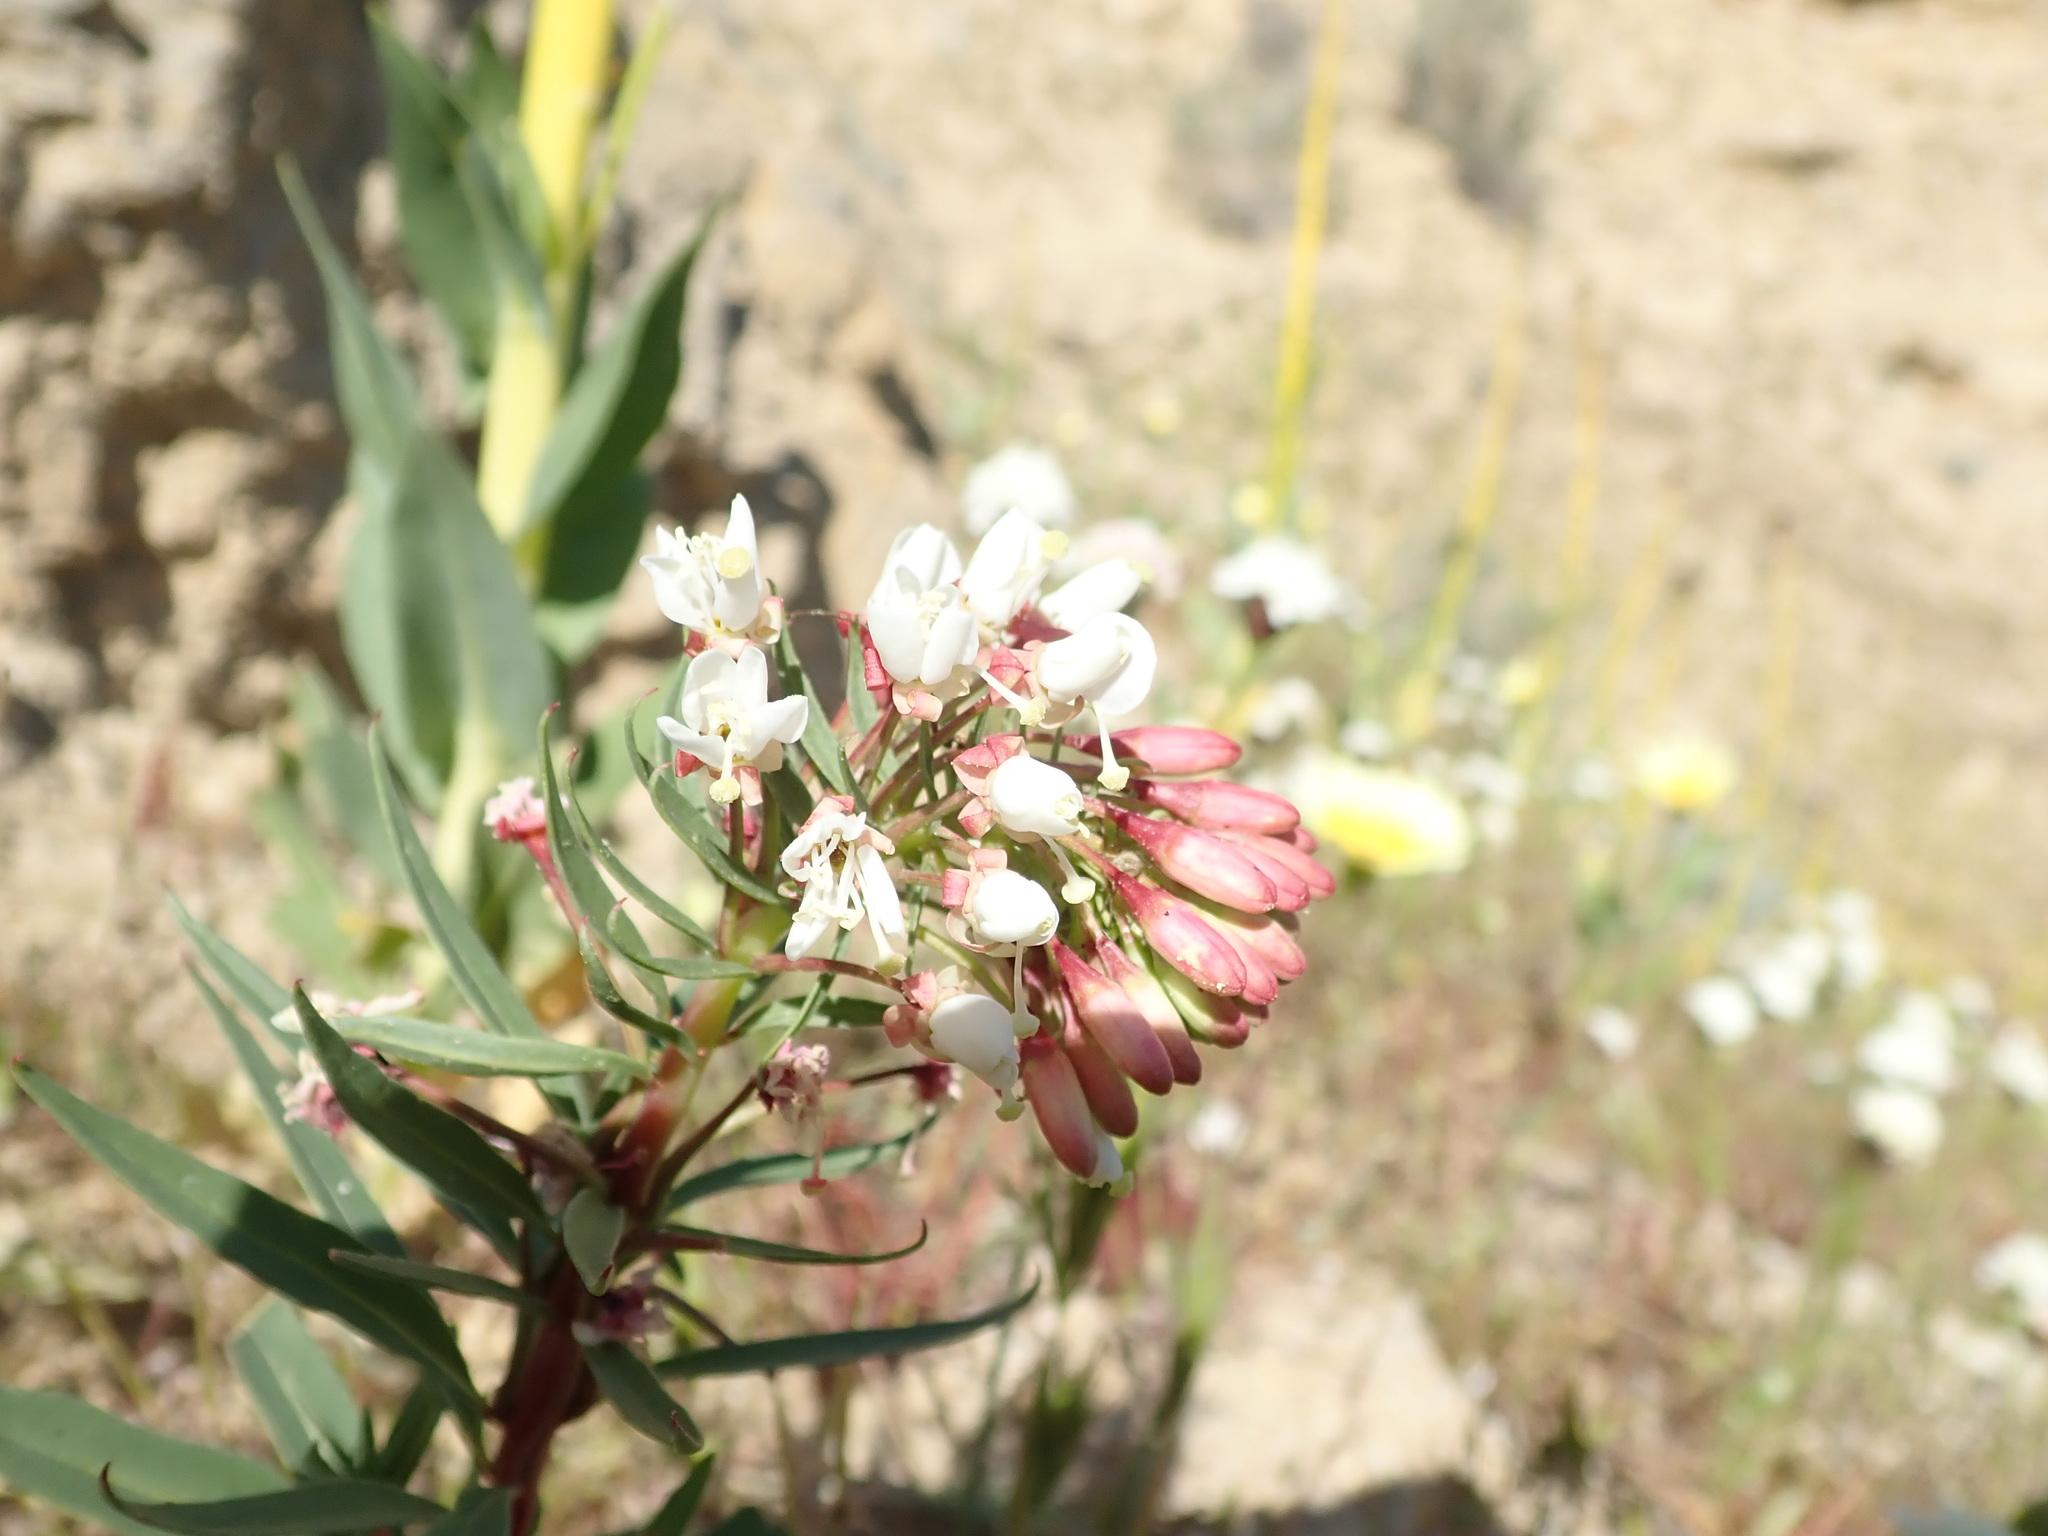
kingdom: Plantae
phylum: Tracheophyta
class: Magnoliopsida
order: Myrtales
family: Onagraceae
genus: Eremothera
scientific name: Eremothera boothii
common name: Booth's evening primrose
